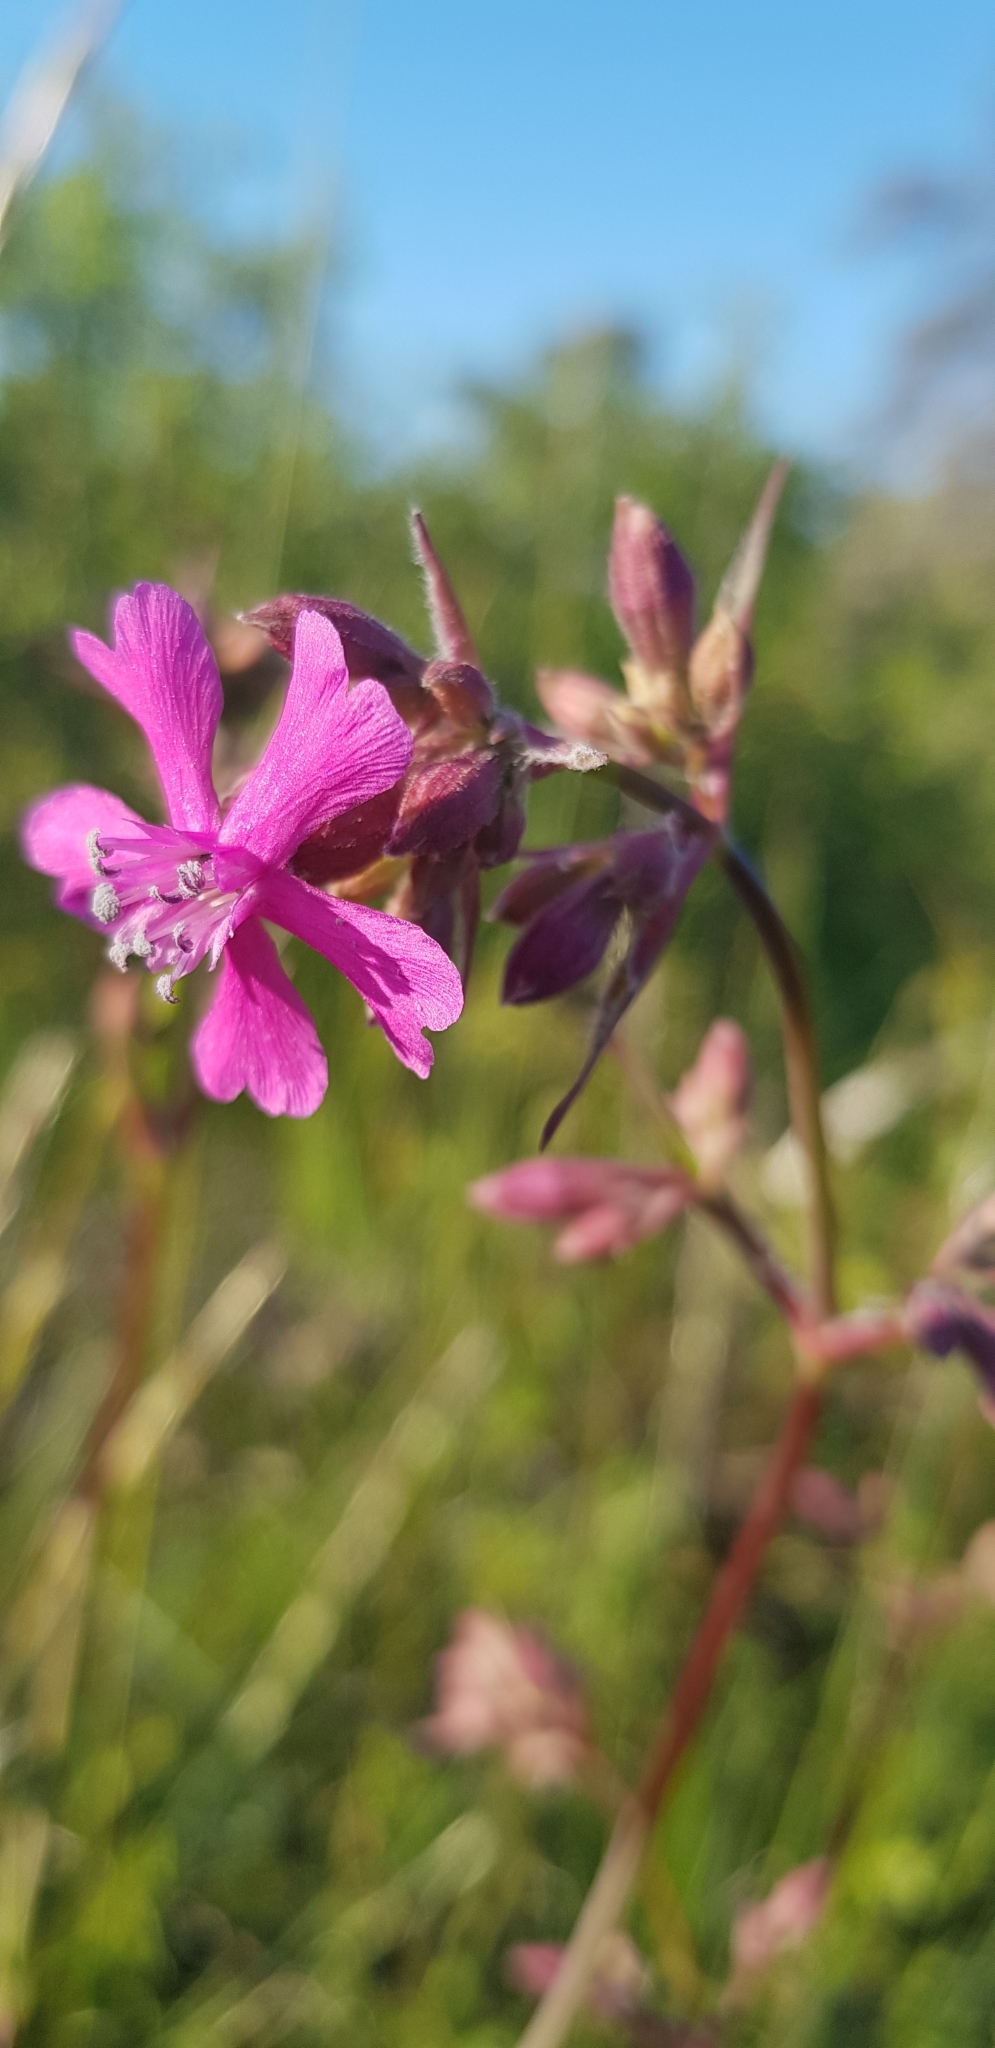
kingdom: Plantae
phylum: Tracheophyta
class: Magnoliopsida
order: Caryophyllales
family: Caryophyllaceae
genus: Viscaria
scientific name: Viscaria vulgaris
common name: Clammy campion
